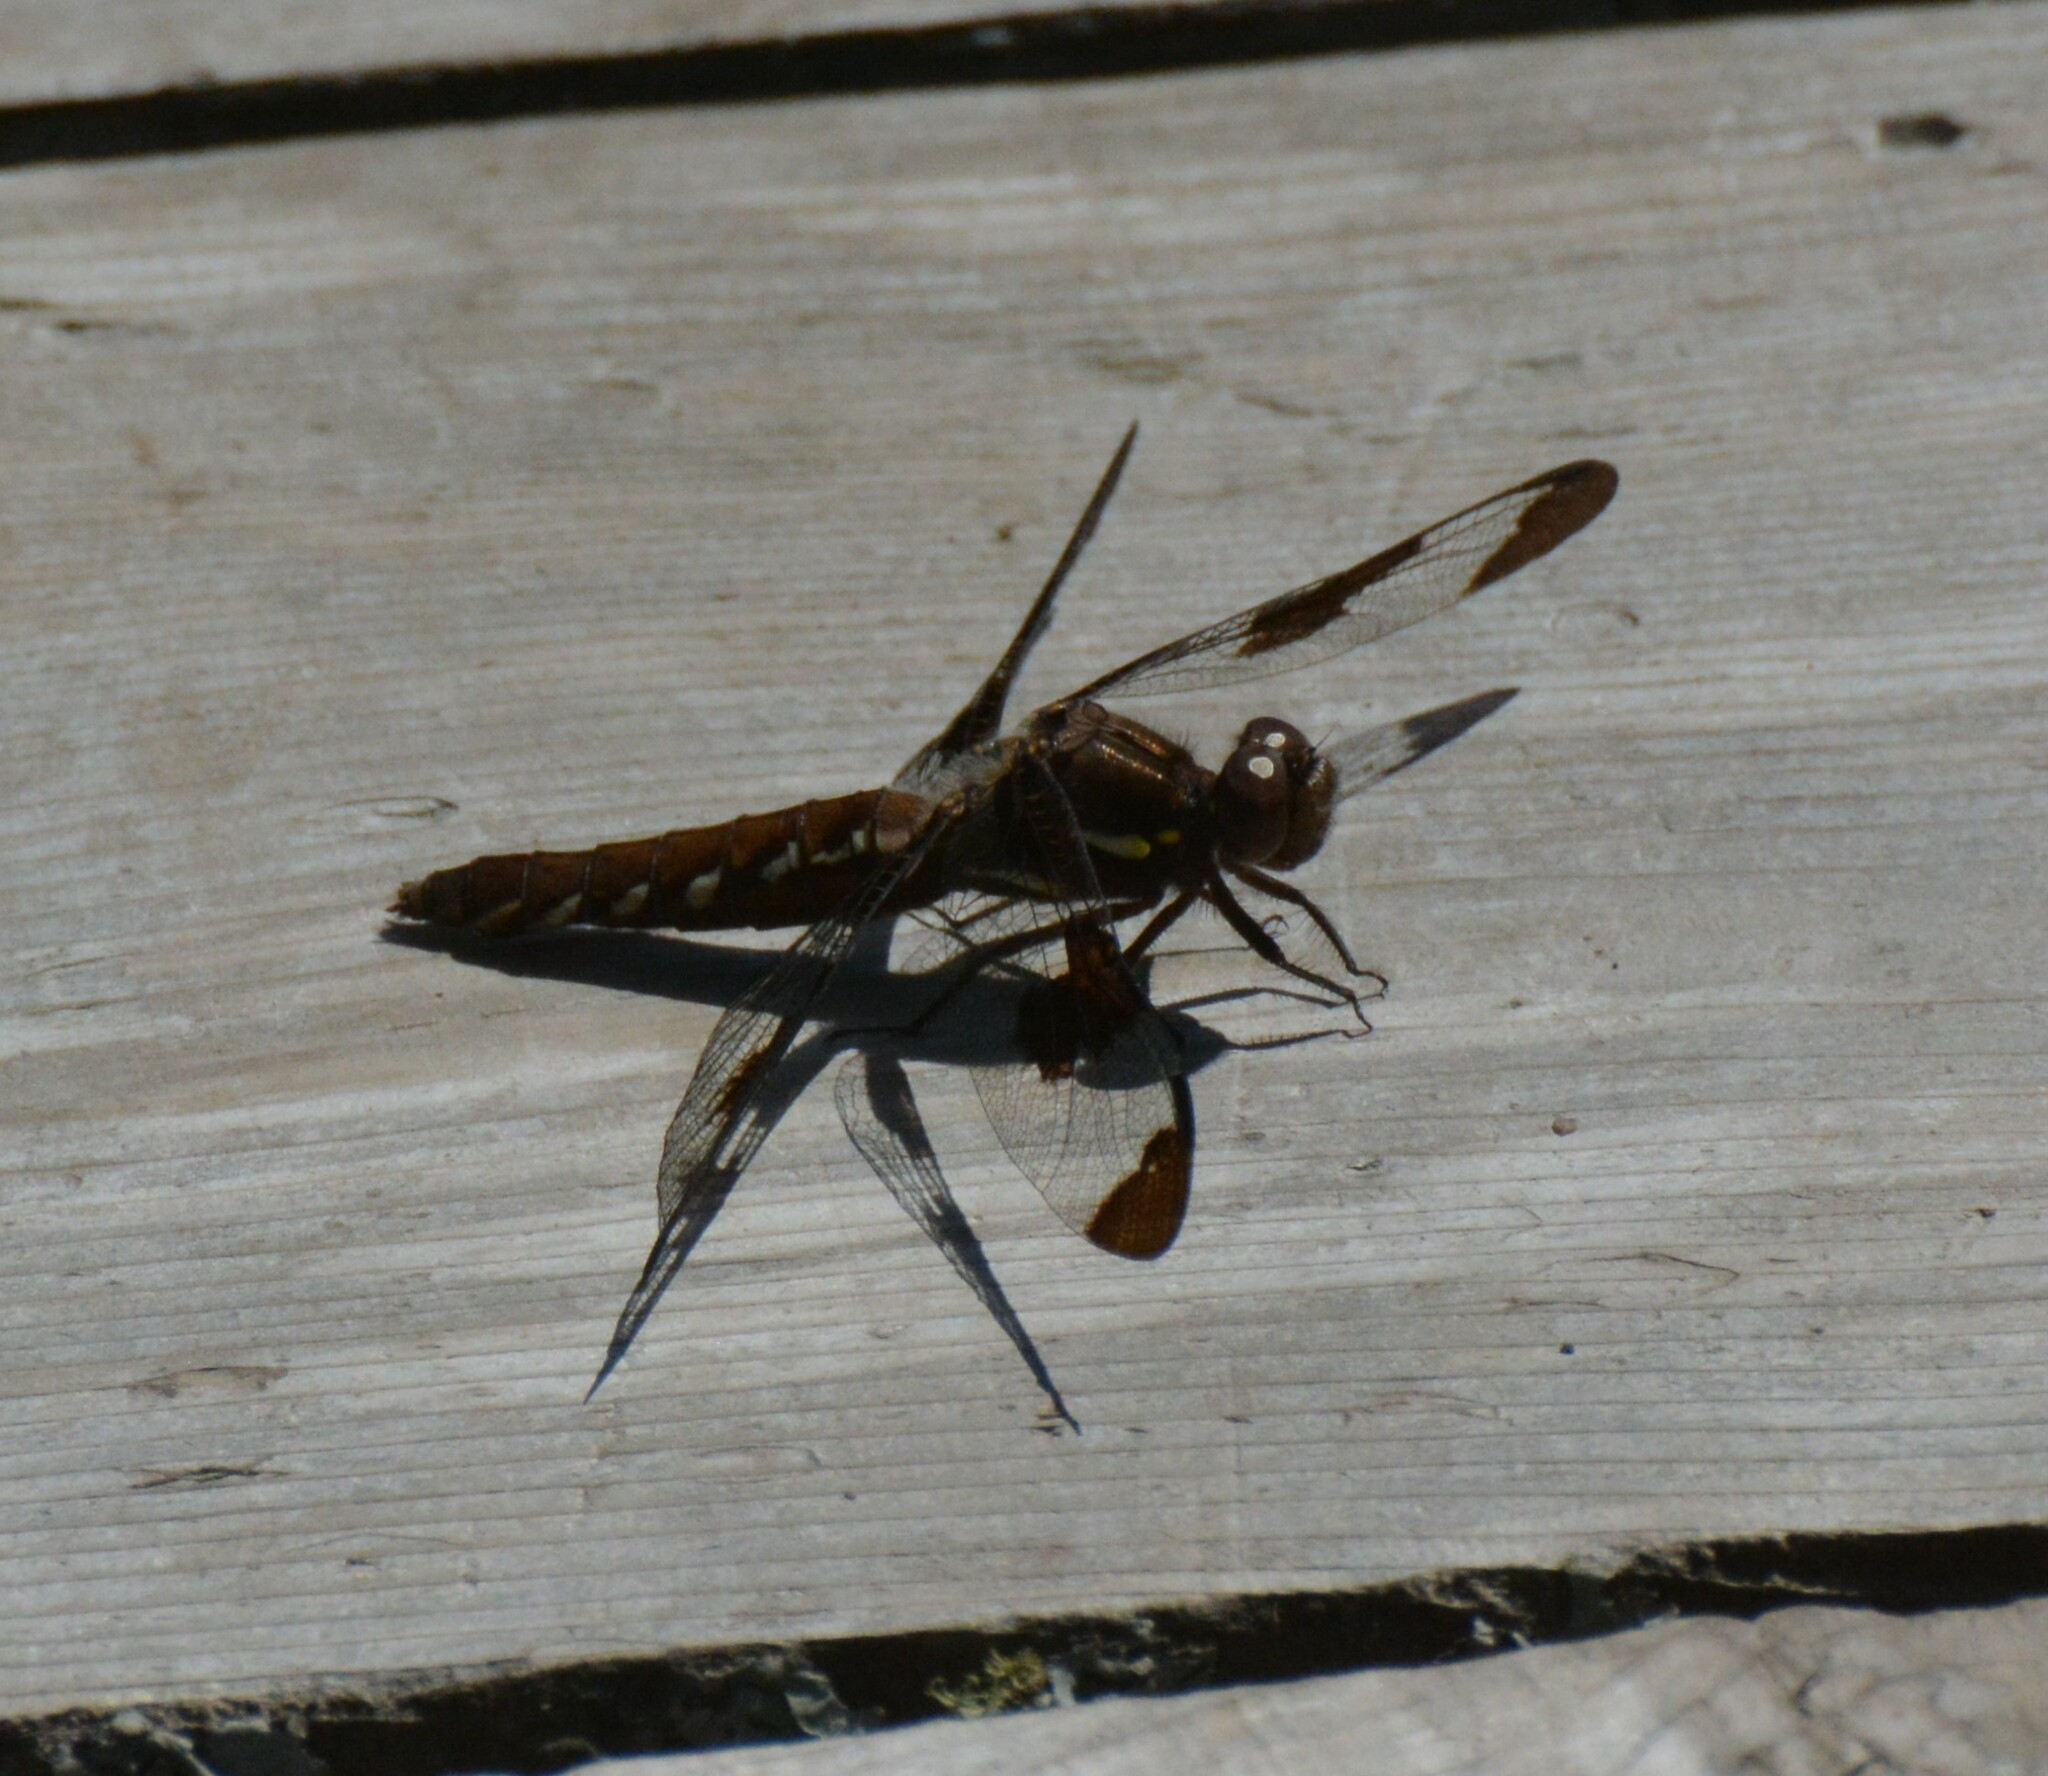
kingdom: Animalia
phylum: Arthropoda
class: Insecta
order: Odonata
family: Libellulidae
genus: Plathemis
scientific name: Plathemis lydia
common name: Common whitetail
